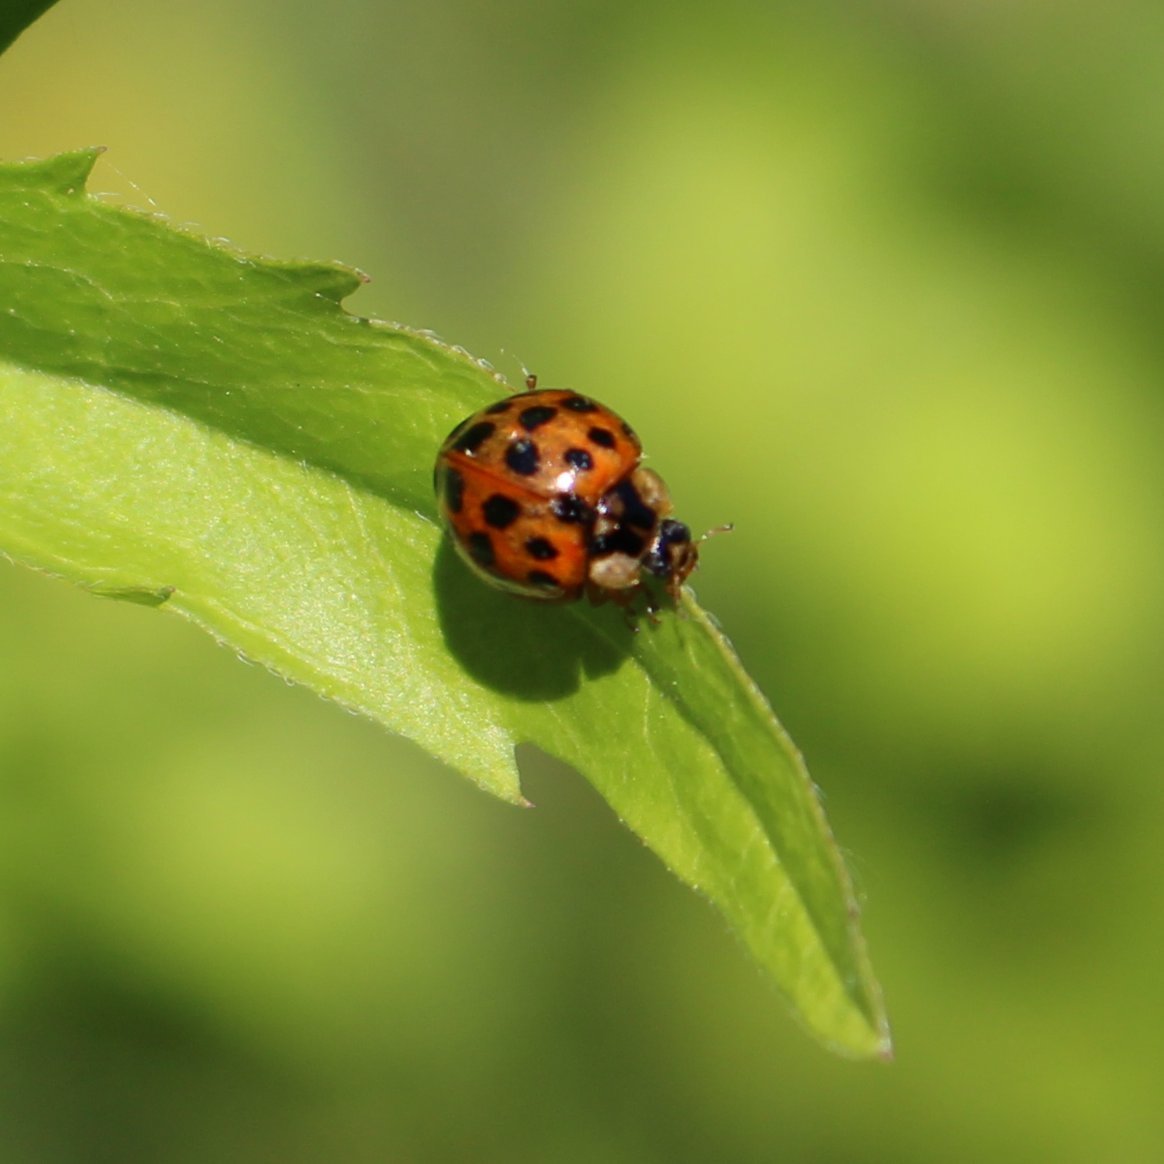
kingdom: Animalia
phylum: Arthropoda
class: Insecta
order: Coleoptera
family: Coccinellidae
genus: Harmonia
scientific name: Harmonia axyridis
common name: Harlequin ladybird
